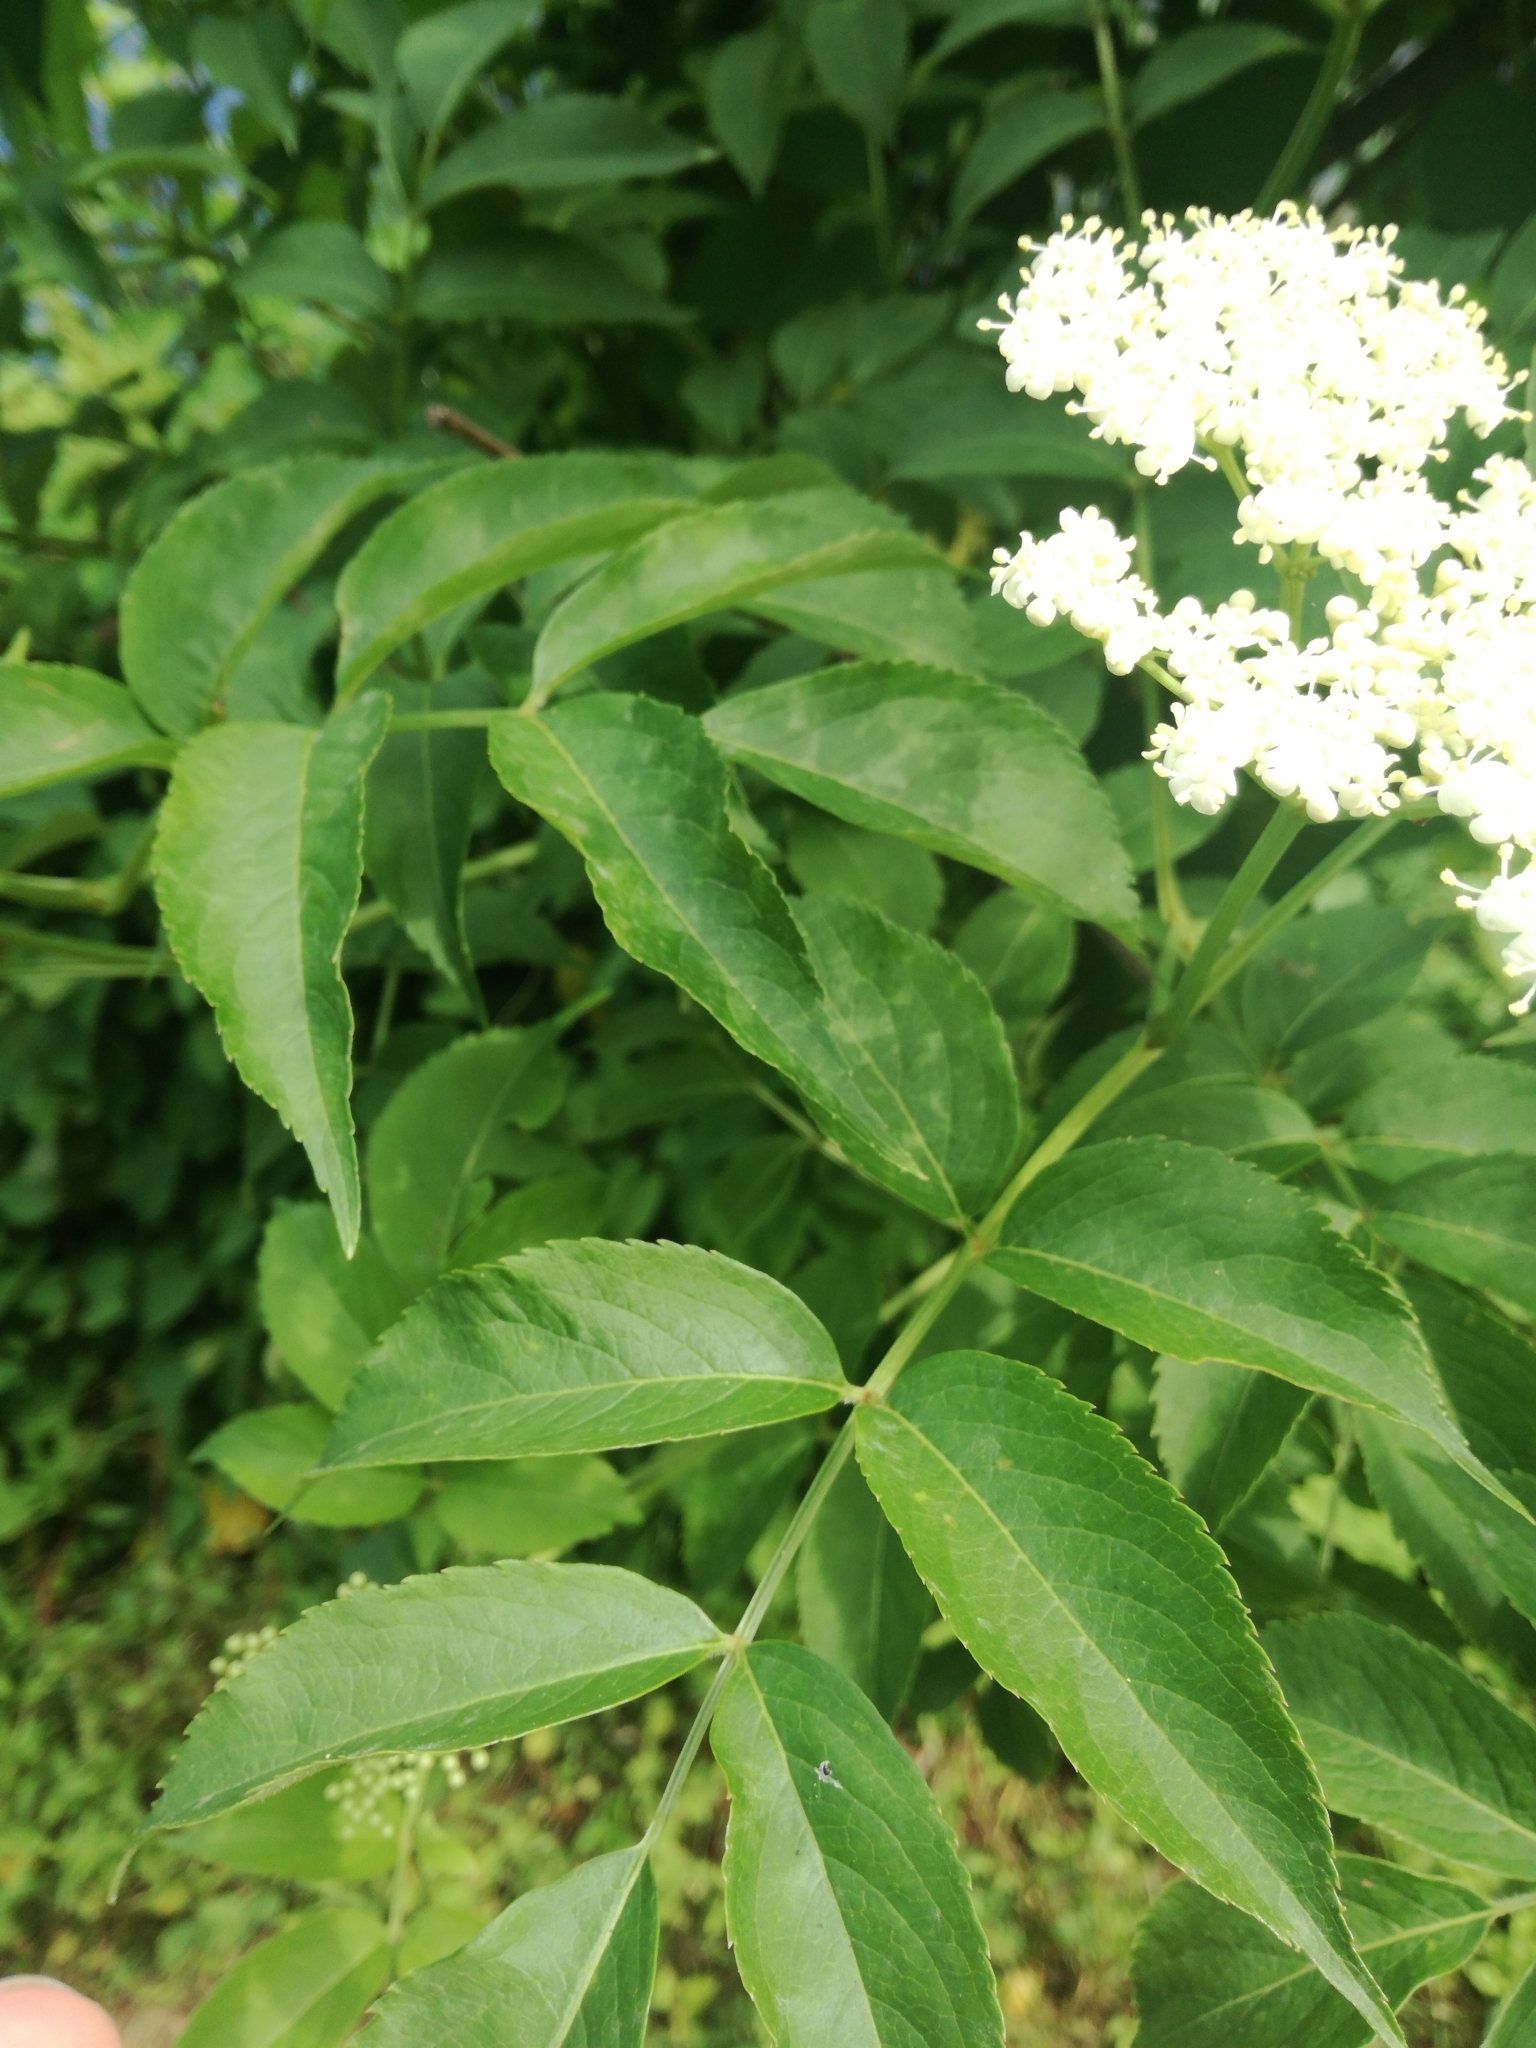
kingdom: Plantae
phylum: Tracheophyta
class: Magnoliopsida
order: Dipsacales
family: Viburnaceae
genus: Sambucus
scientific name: Sambucus canadensis
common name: American elder
